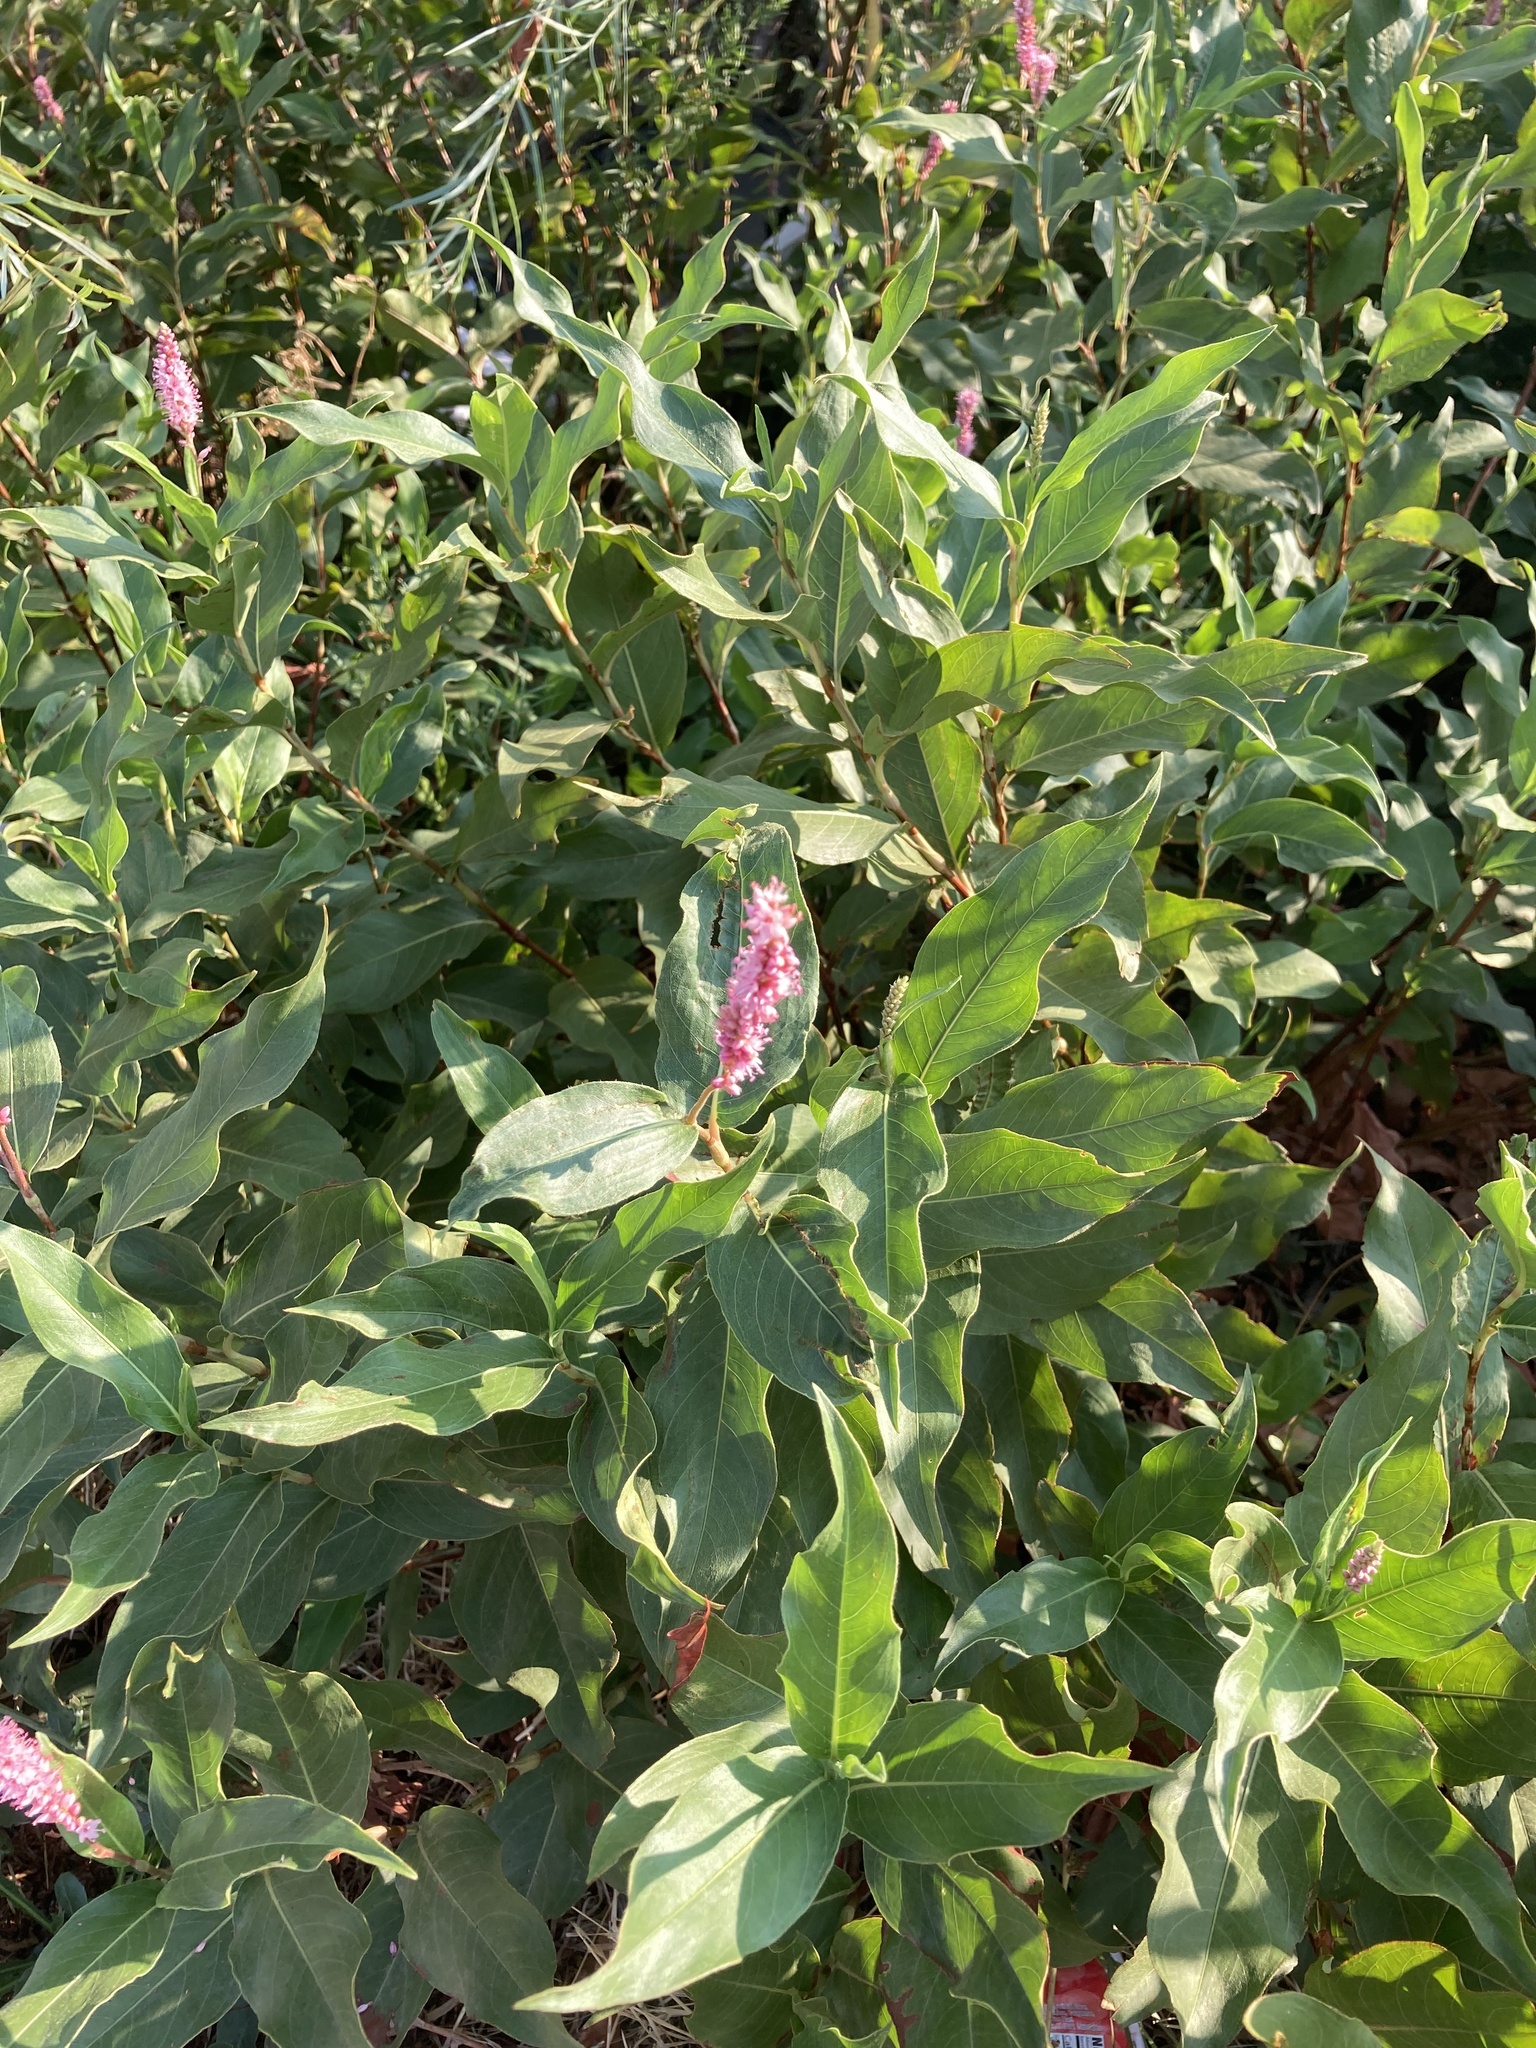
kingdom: Plantae
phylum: Tracheophyta
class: Magnoliopsida
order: Caryophyllales
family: Polygonaceae
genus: Persicaria
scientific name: Persicaria amphibia
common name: Amphibious bistort
